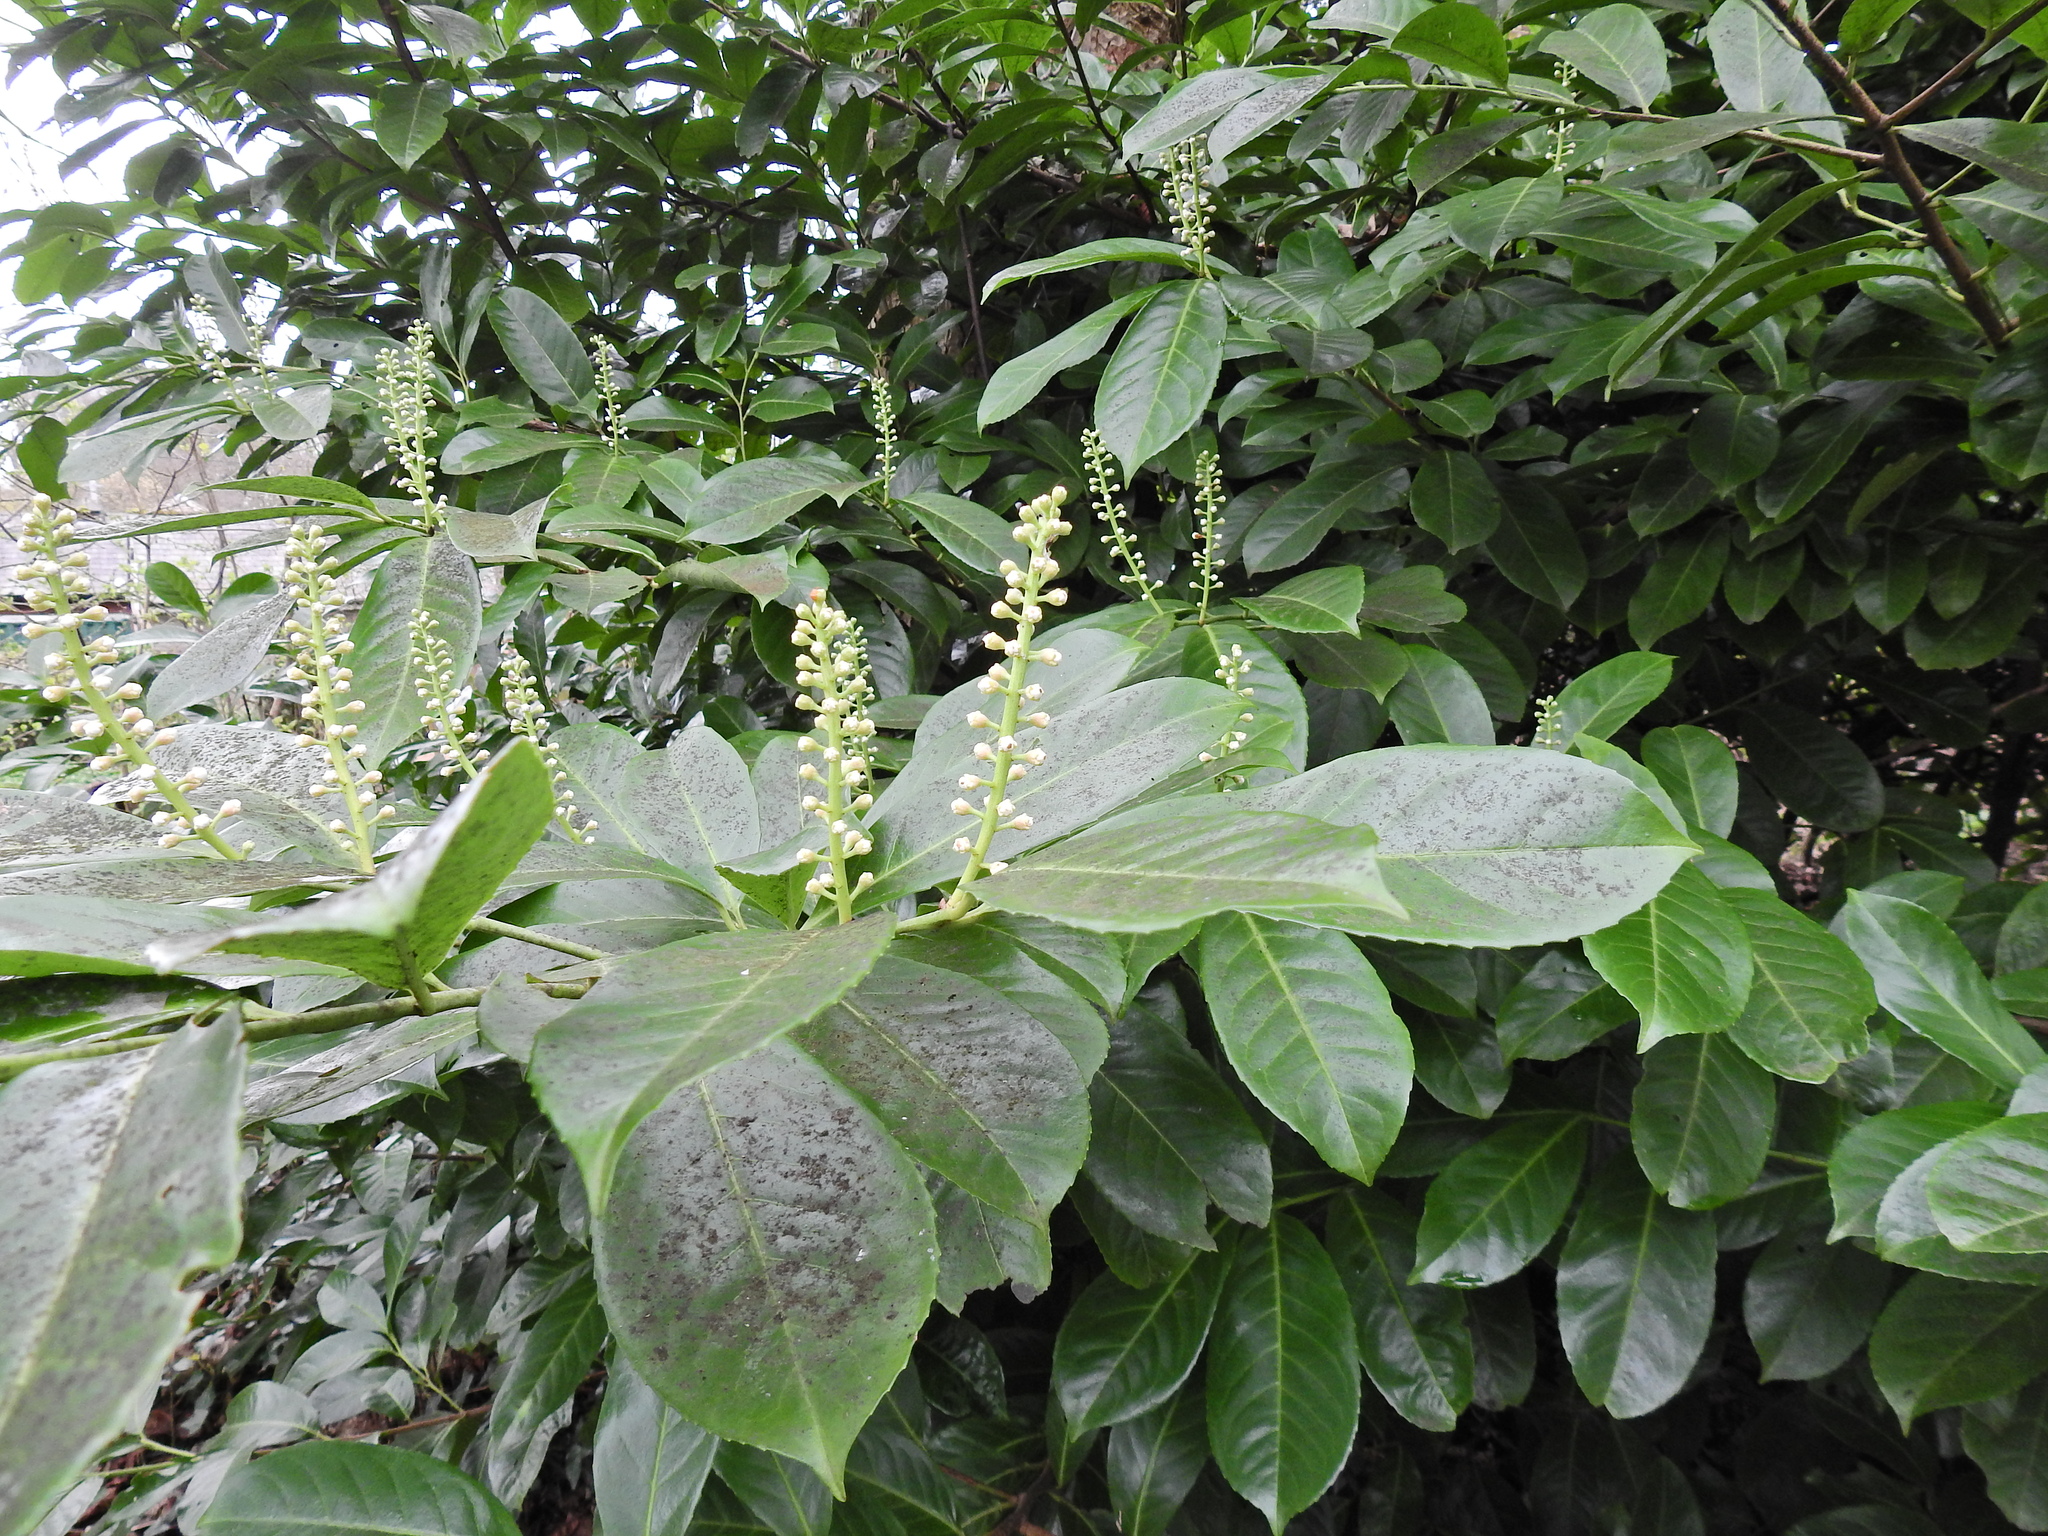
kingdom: Plantae
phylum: Tracheophyta
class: Magnoliopsida
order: Rosales
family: Rosaceae
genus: Prunus
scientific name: Prunus laurocerasus
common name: Cherry laurel
